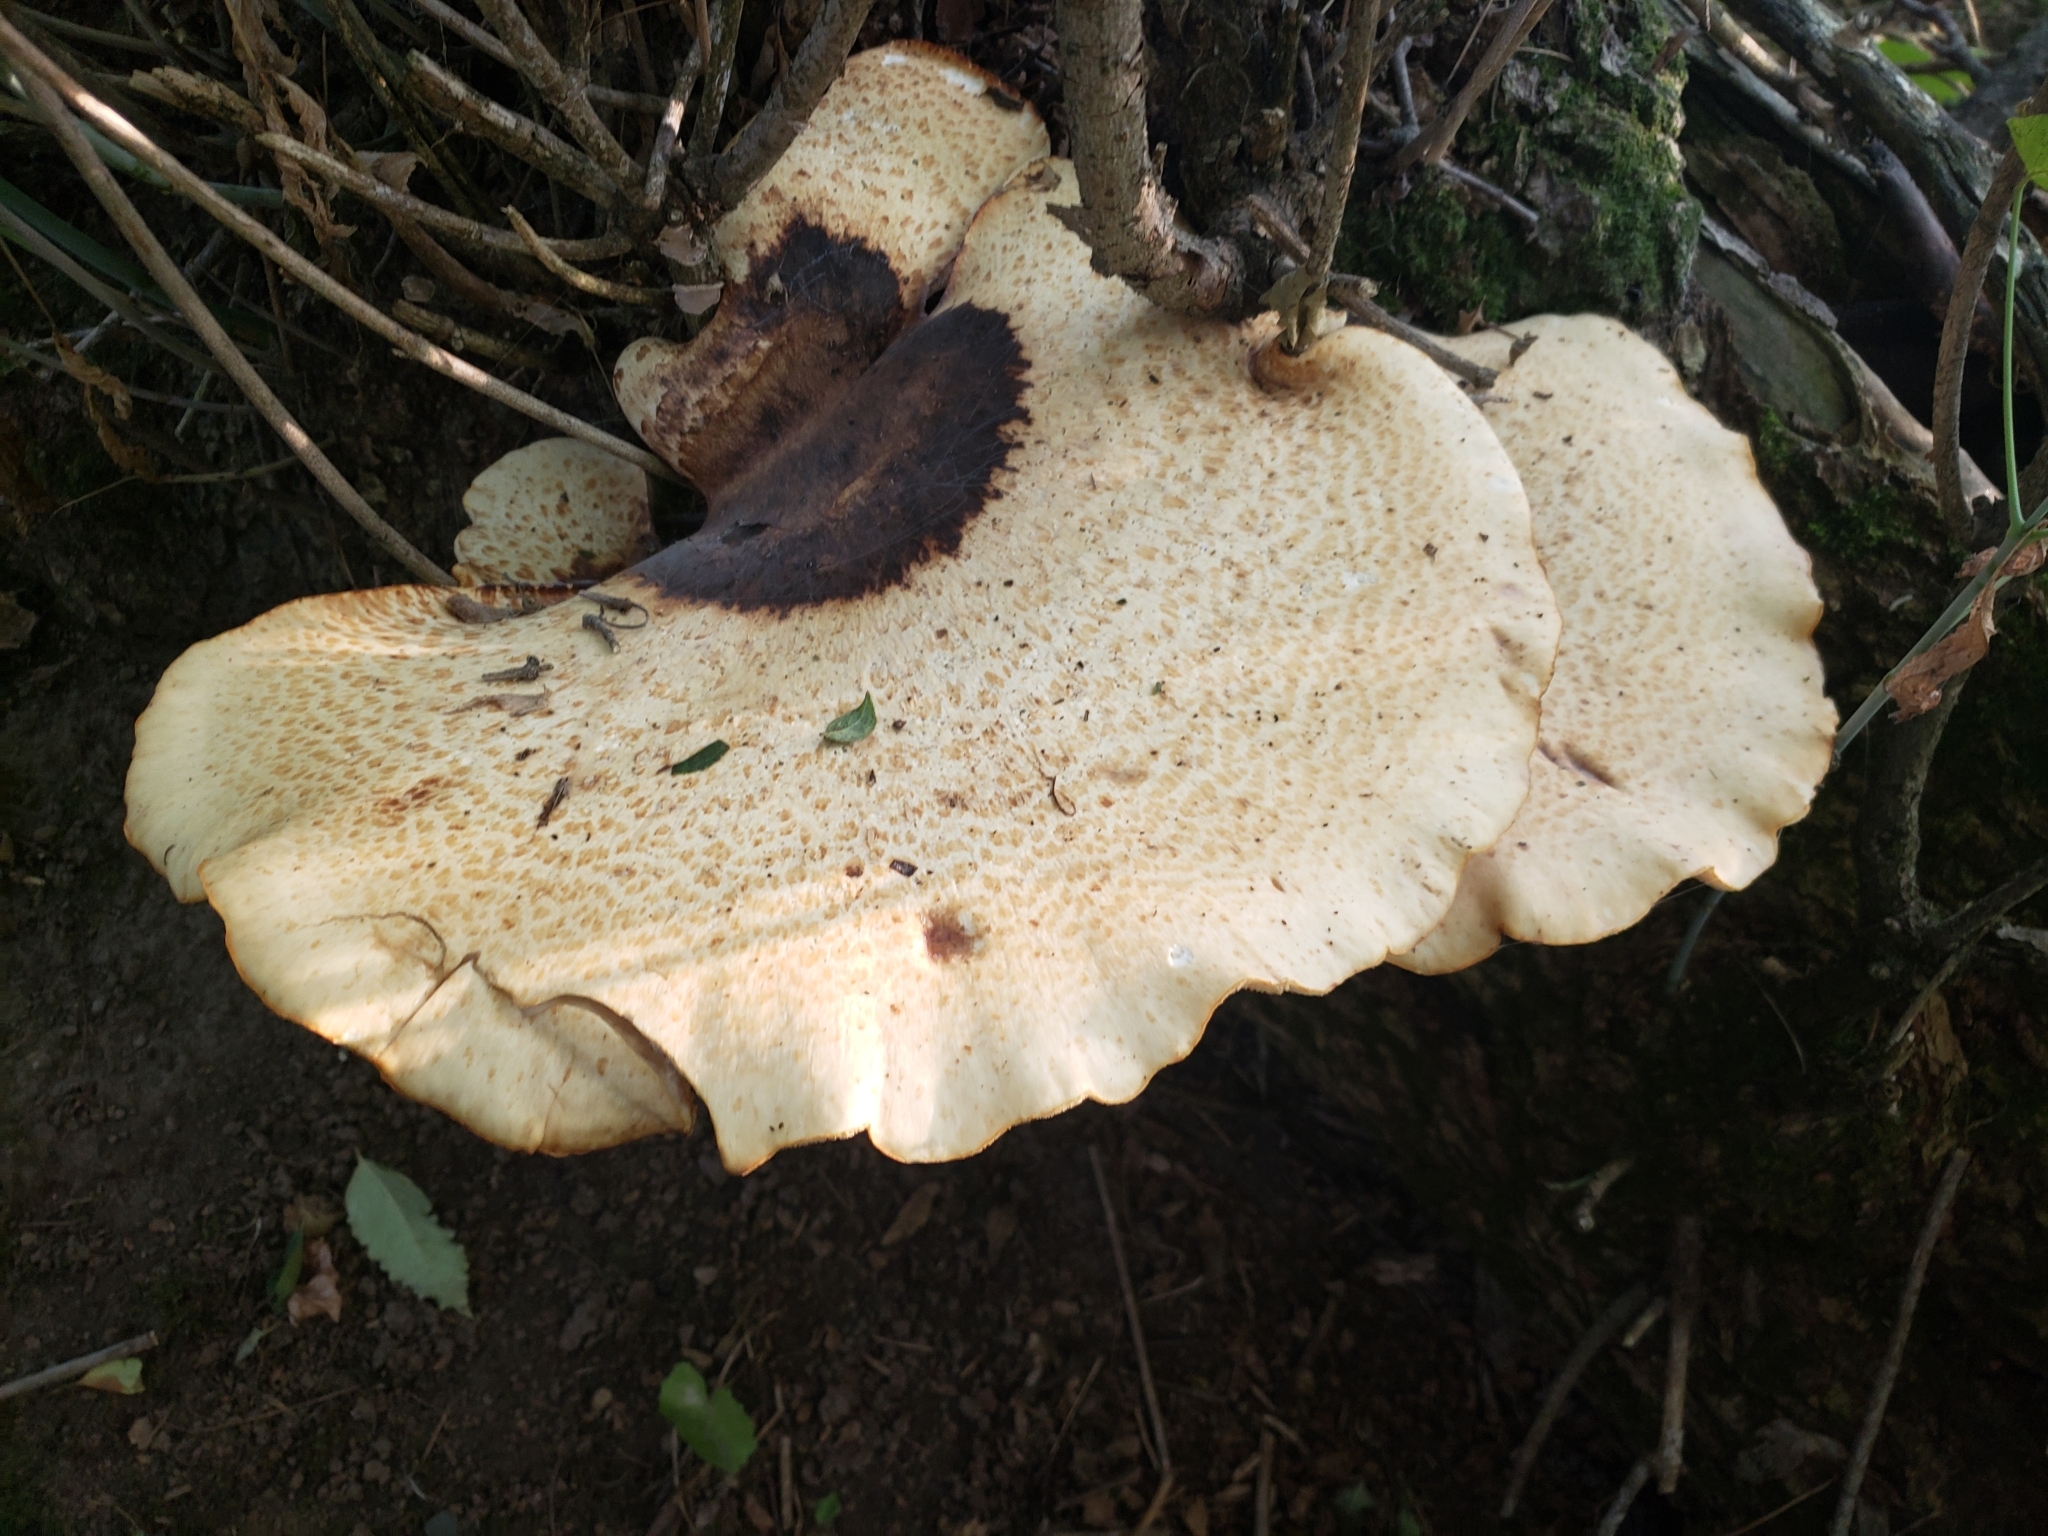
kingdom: Fungi
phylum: Basidiomycota
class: Agaricomycetes
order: Polyporales
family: Polyporaceae
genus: Cerioporus
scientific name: Cerioporus squamosus
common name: Dryad's saddle
